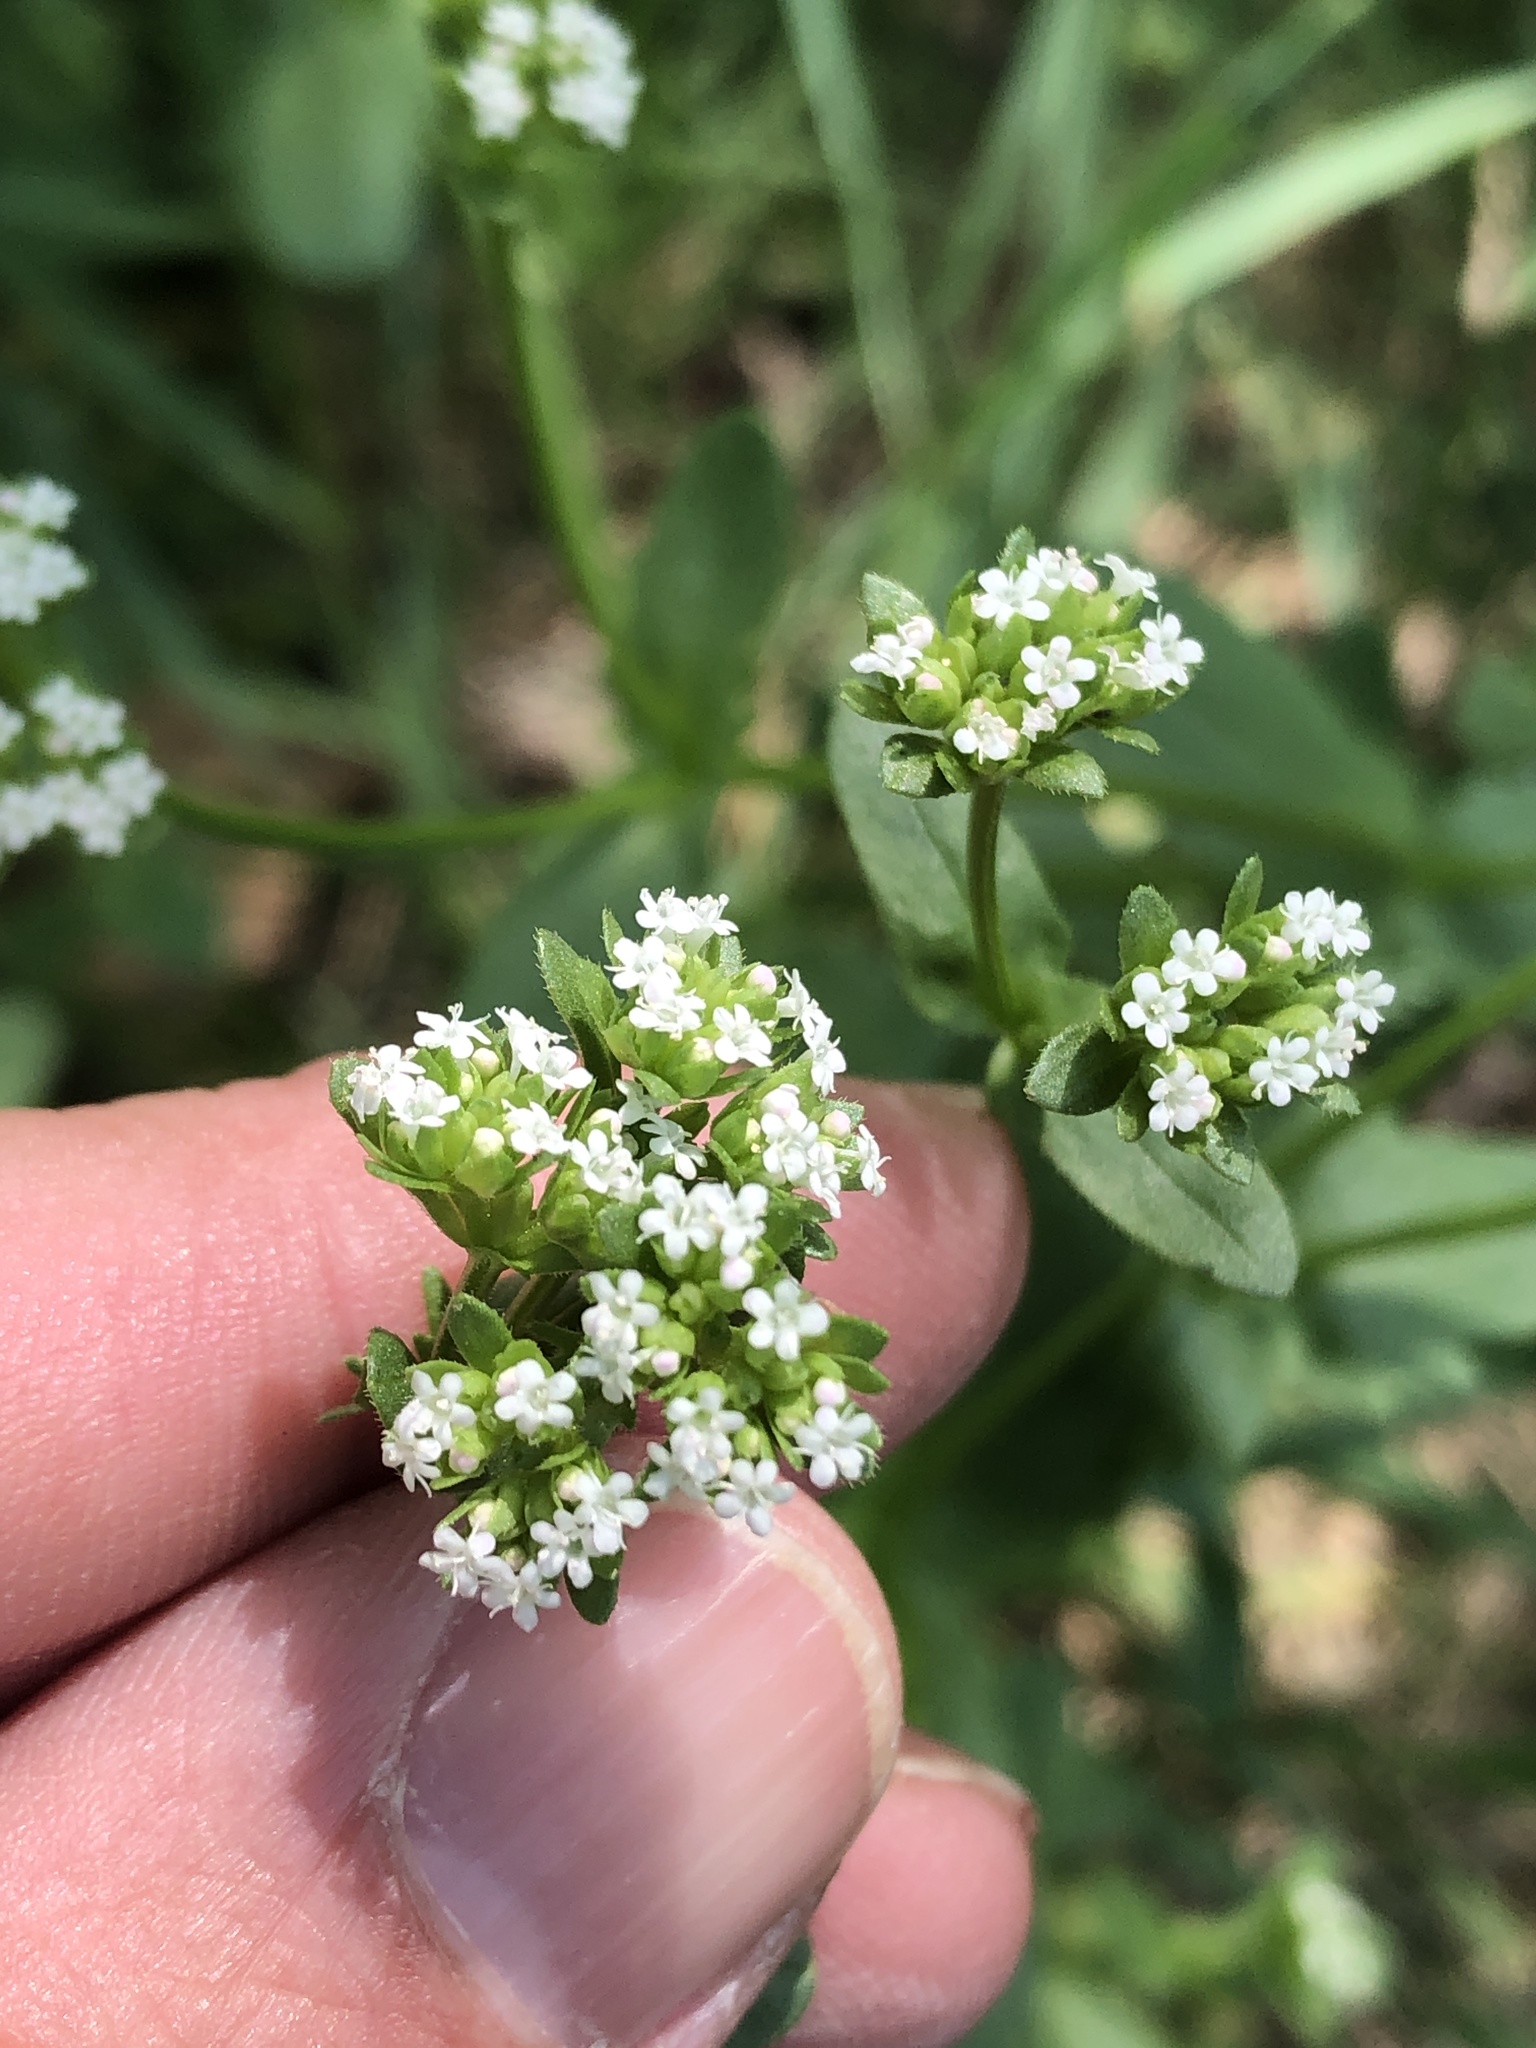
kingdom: Plantae
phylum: Tracheophyta
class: Magnoliopsida
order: Dipsacales
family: Caprifoliaceae
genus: Valerianella
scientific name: Valerianella radiata
